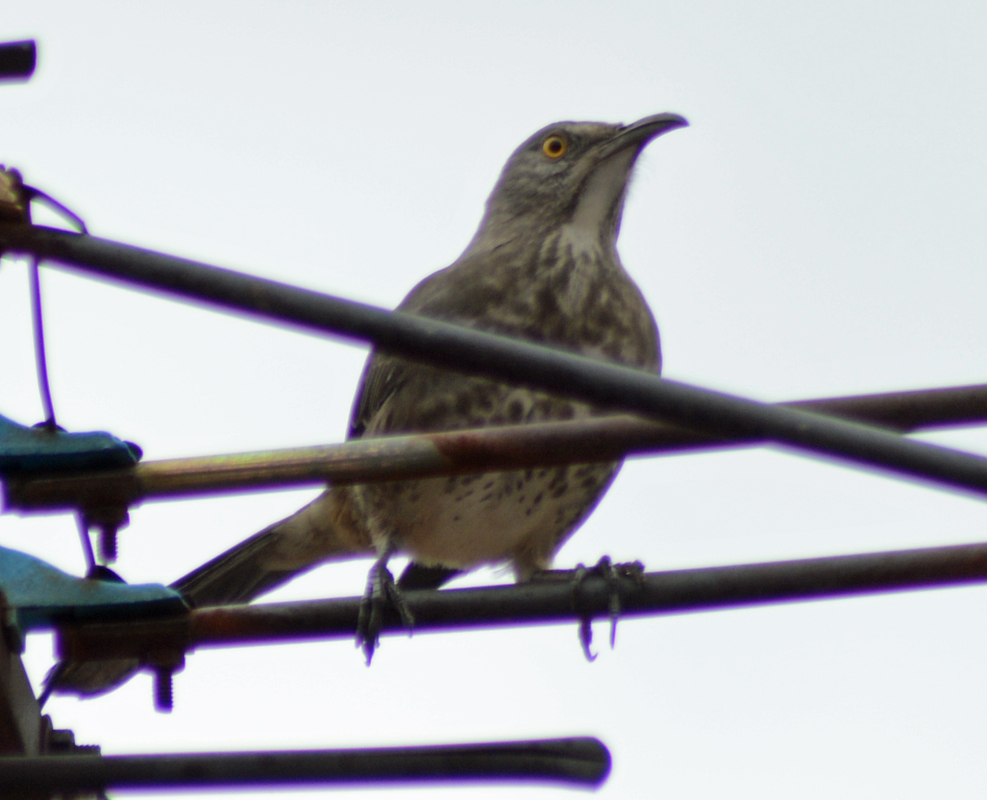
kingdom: Animalia
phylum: Chordata
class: Aves
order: Passeriformes
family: Mimidae
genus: Toxostoma
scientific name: Toxostoma curvirostre
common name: Curve-billed thrasher
